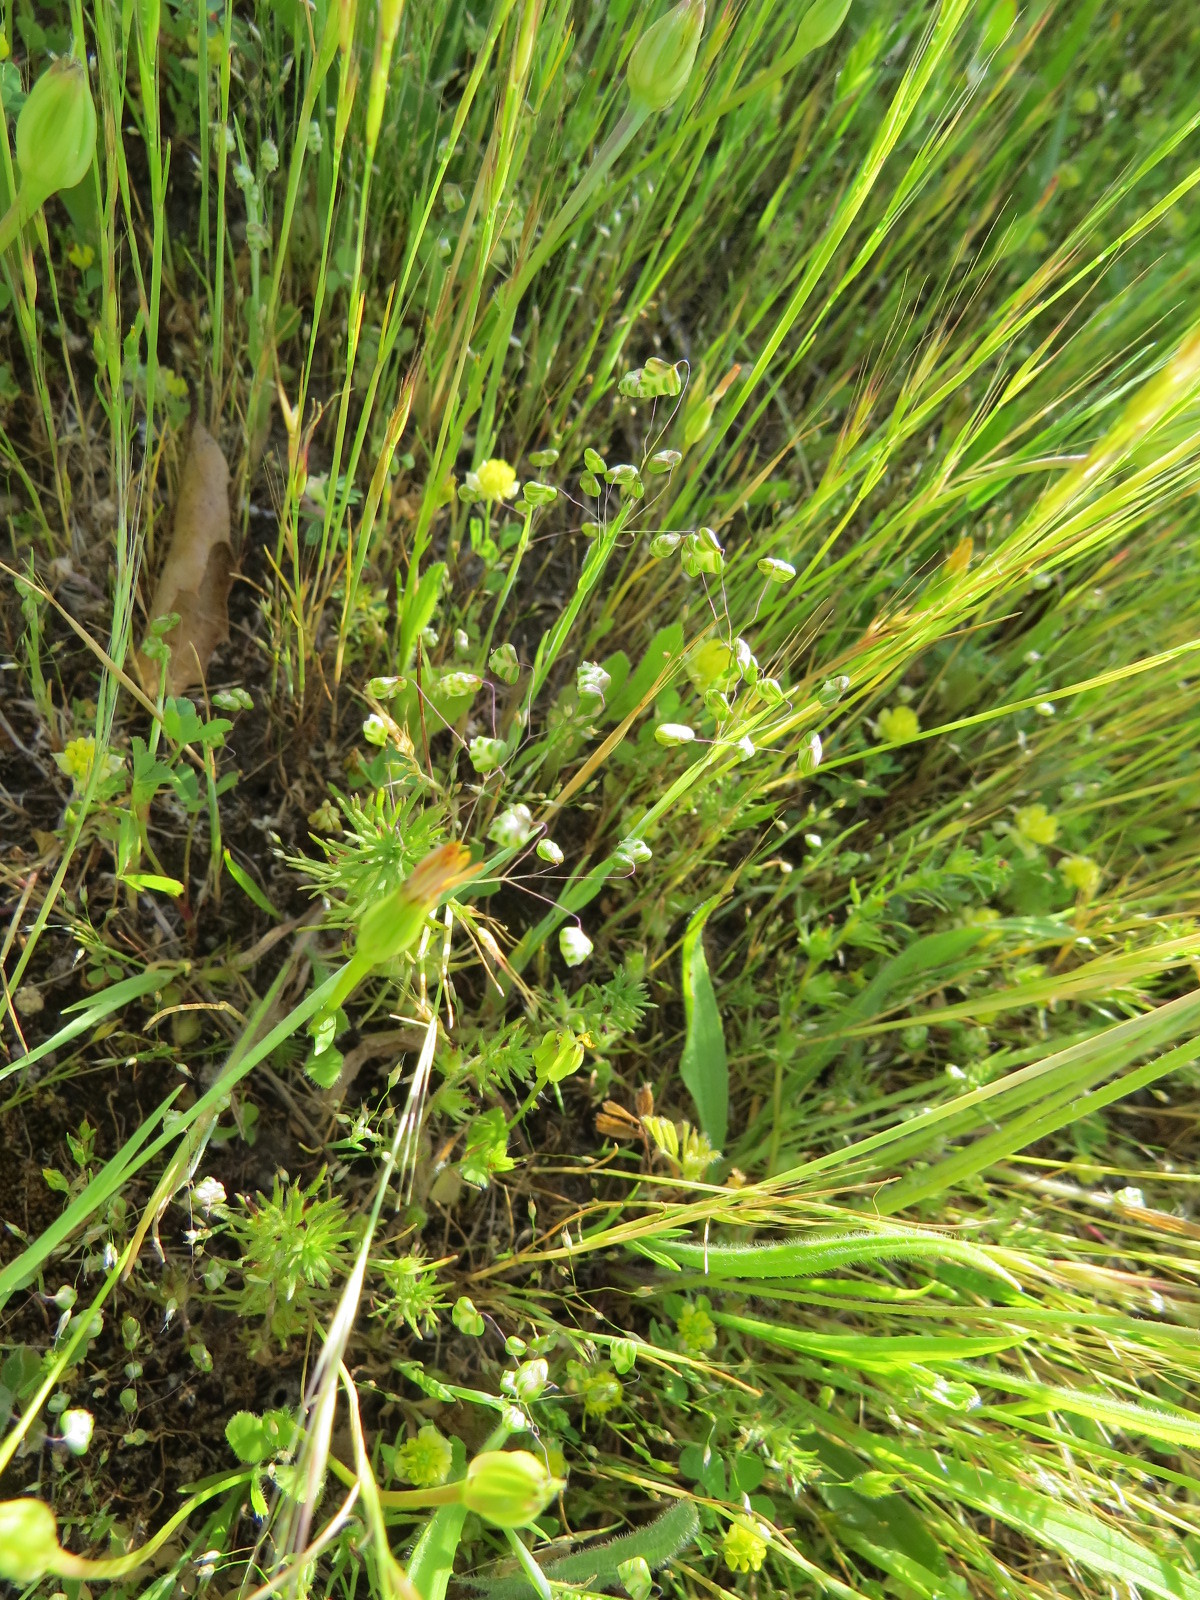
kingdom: Plantae
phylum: Tracheophyta
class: Liliopsida
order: Poales
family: Poaceae
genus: Briza
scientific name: Briza minor
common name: Lesser quaking-grass
